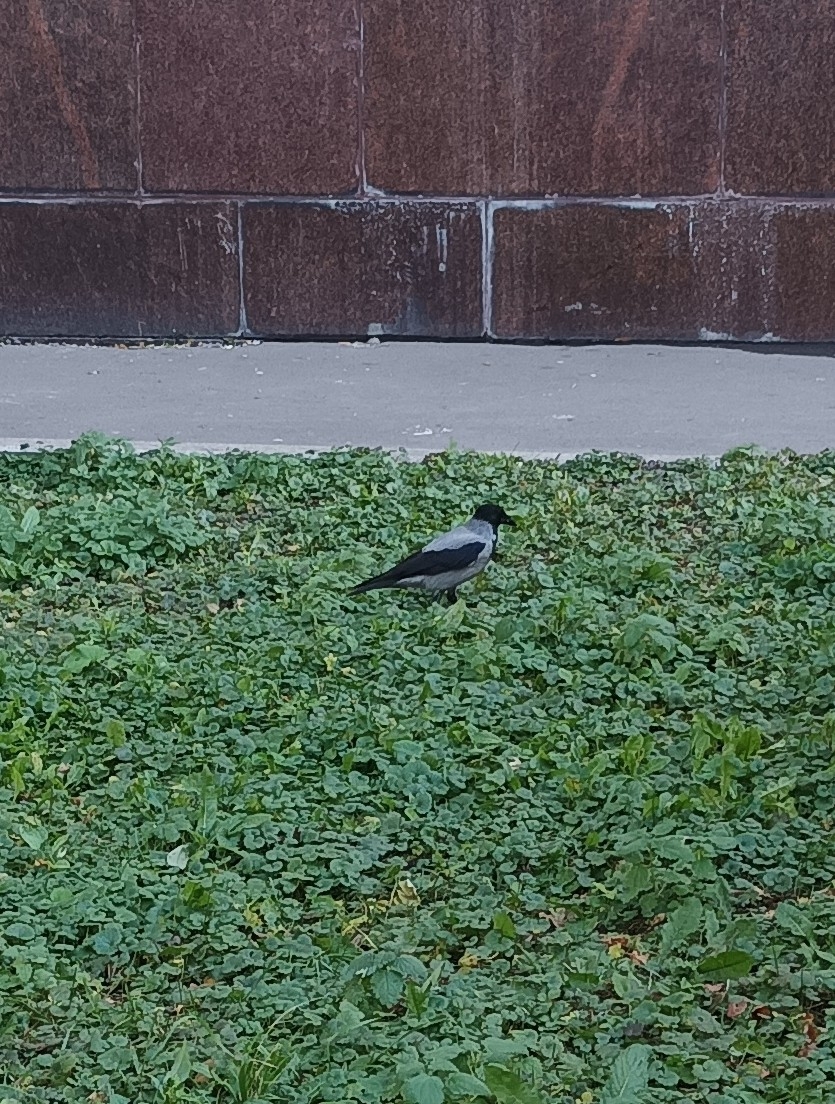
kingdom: Animalia
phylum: Chordata
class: Aves
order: Passeriformes
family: Corvidae
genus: Corvus
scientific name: Corvus cornix
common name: Hooded crow
